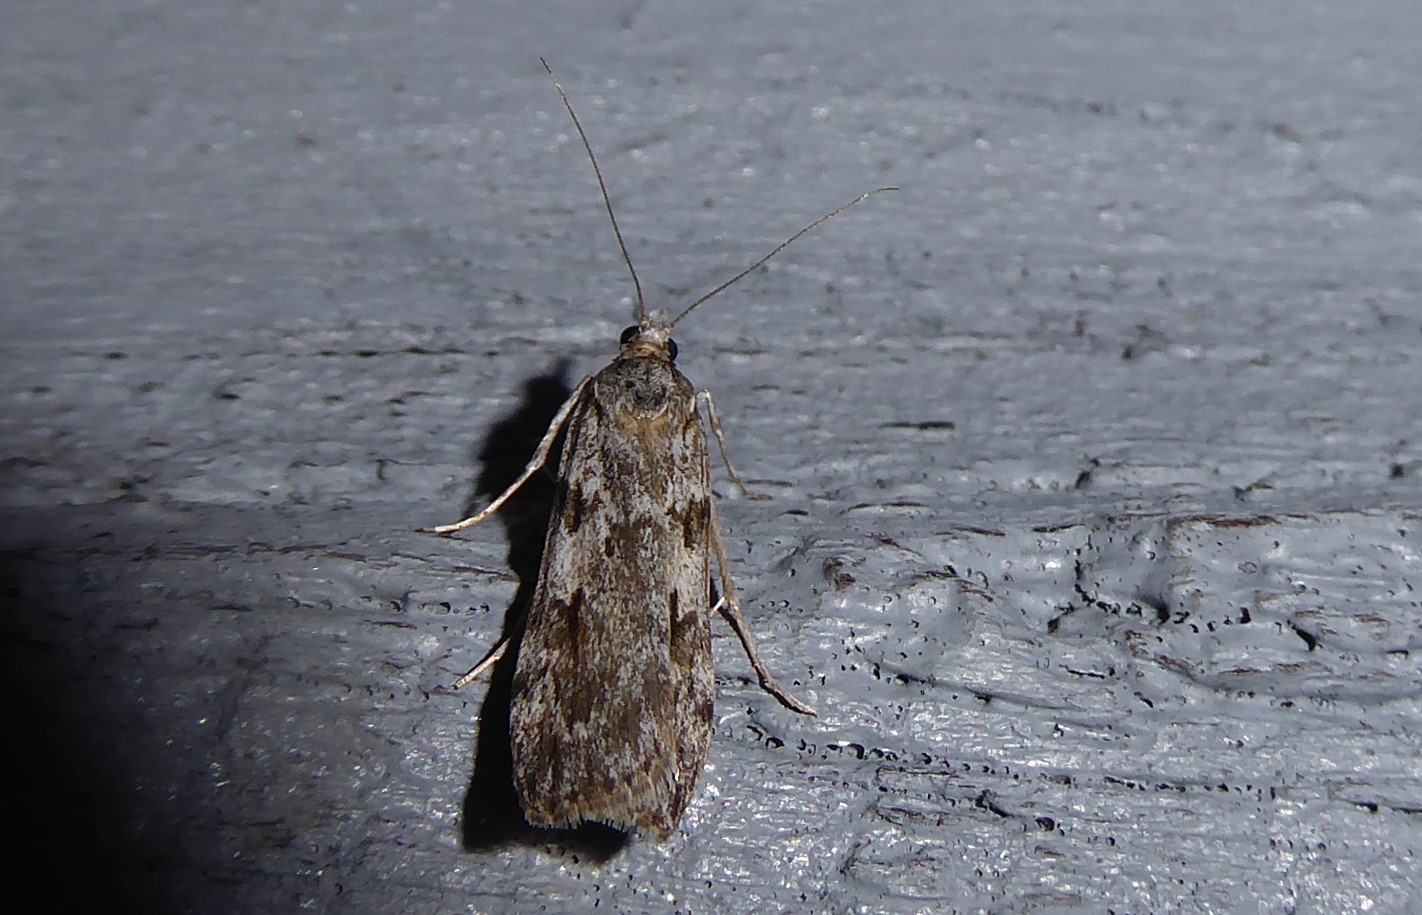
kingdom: Animalia
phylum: Arthropoda
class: Insecta
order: Lepidoptera
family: Crambidae
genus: Scoparia
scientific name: Scoparia halopis
